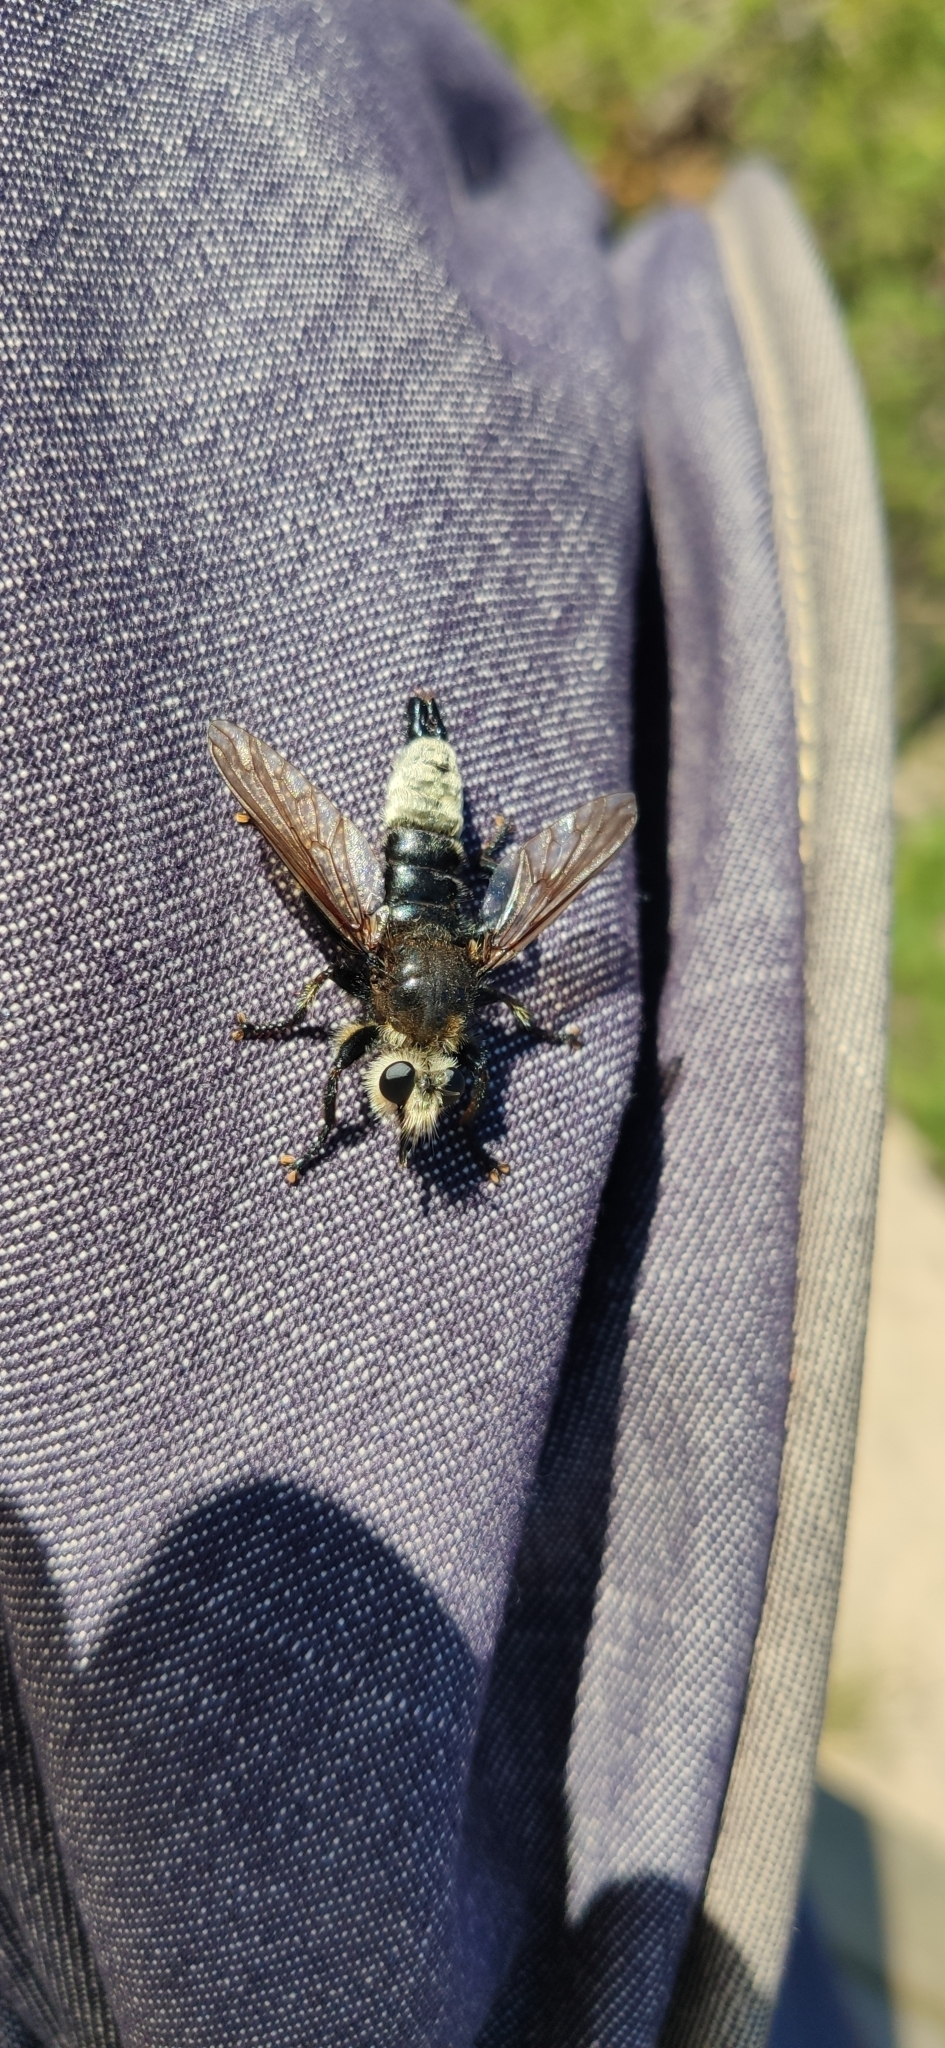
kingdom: Animalia
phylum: Arthropoda
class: Insecta
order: Diptera
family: Asilidae
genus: Laphria
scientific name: Laphria gibbosa
